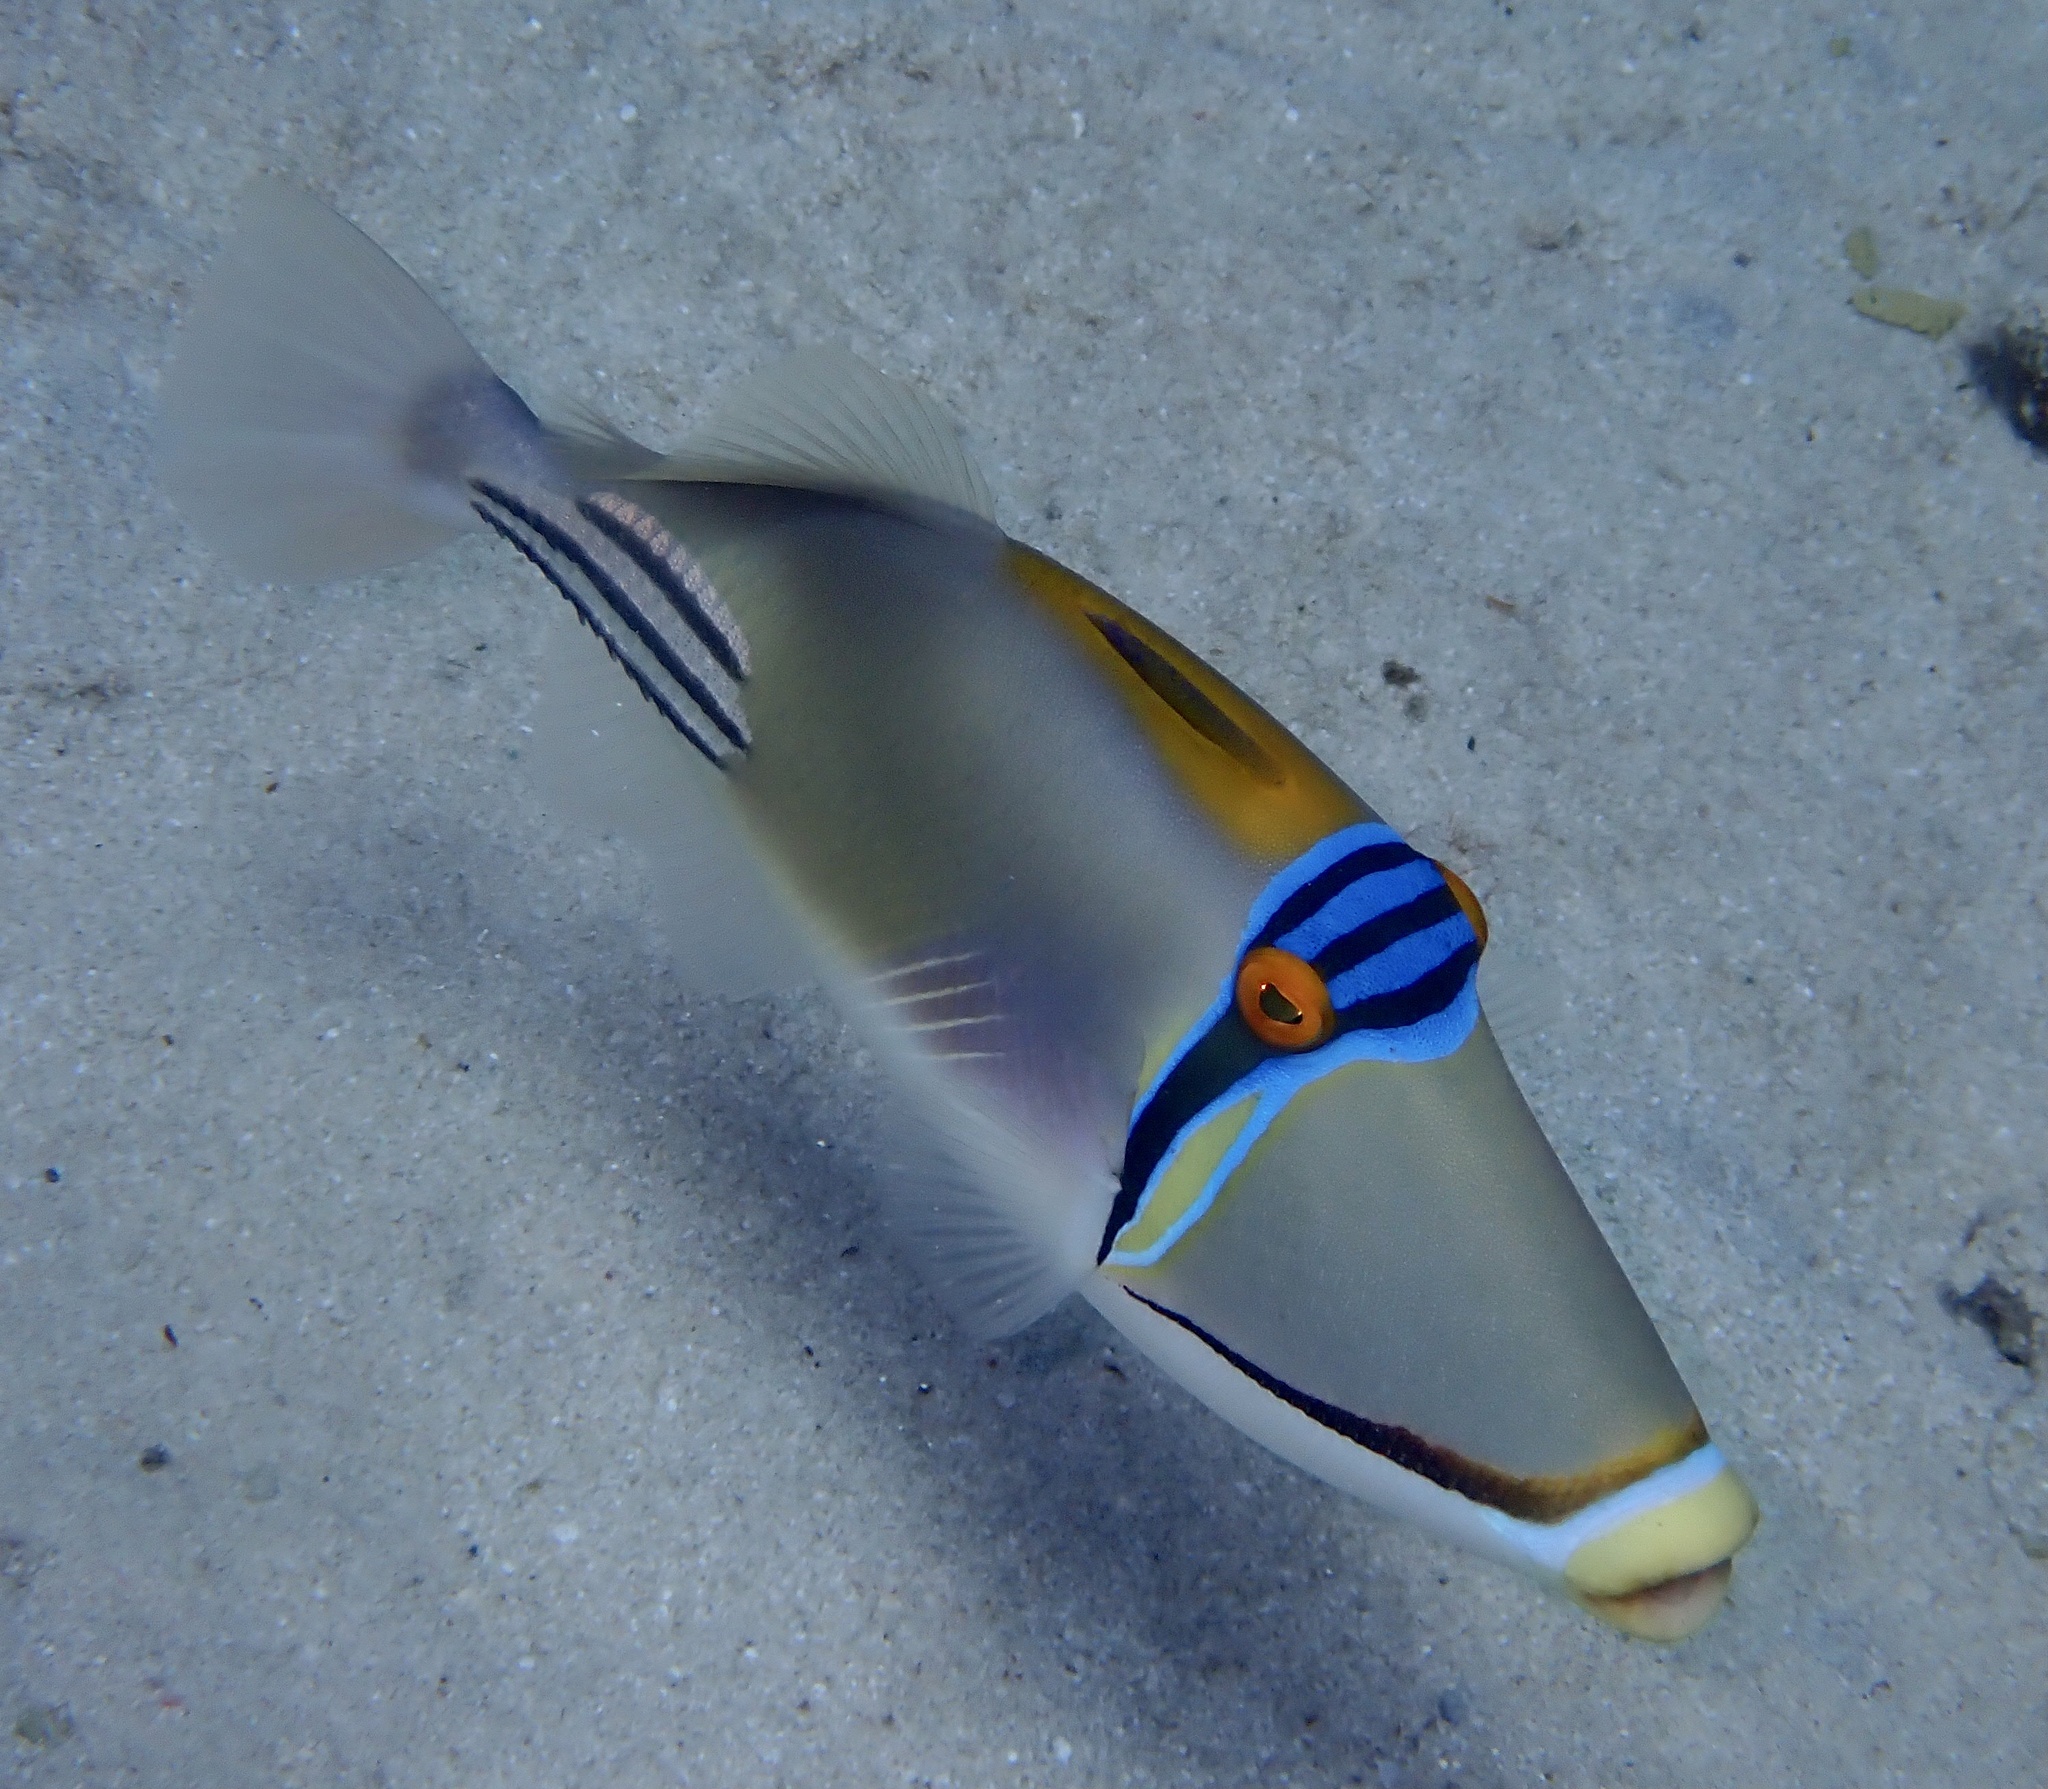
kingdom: Animalia
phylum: Chordata
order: Tetraodontiformes
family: Balistidae
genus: Rhinecanthus
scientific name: Rhinecanthus assasi
